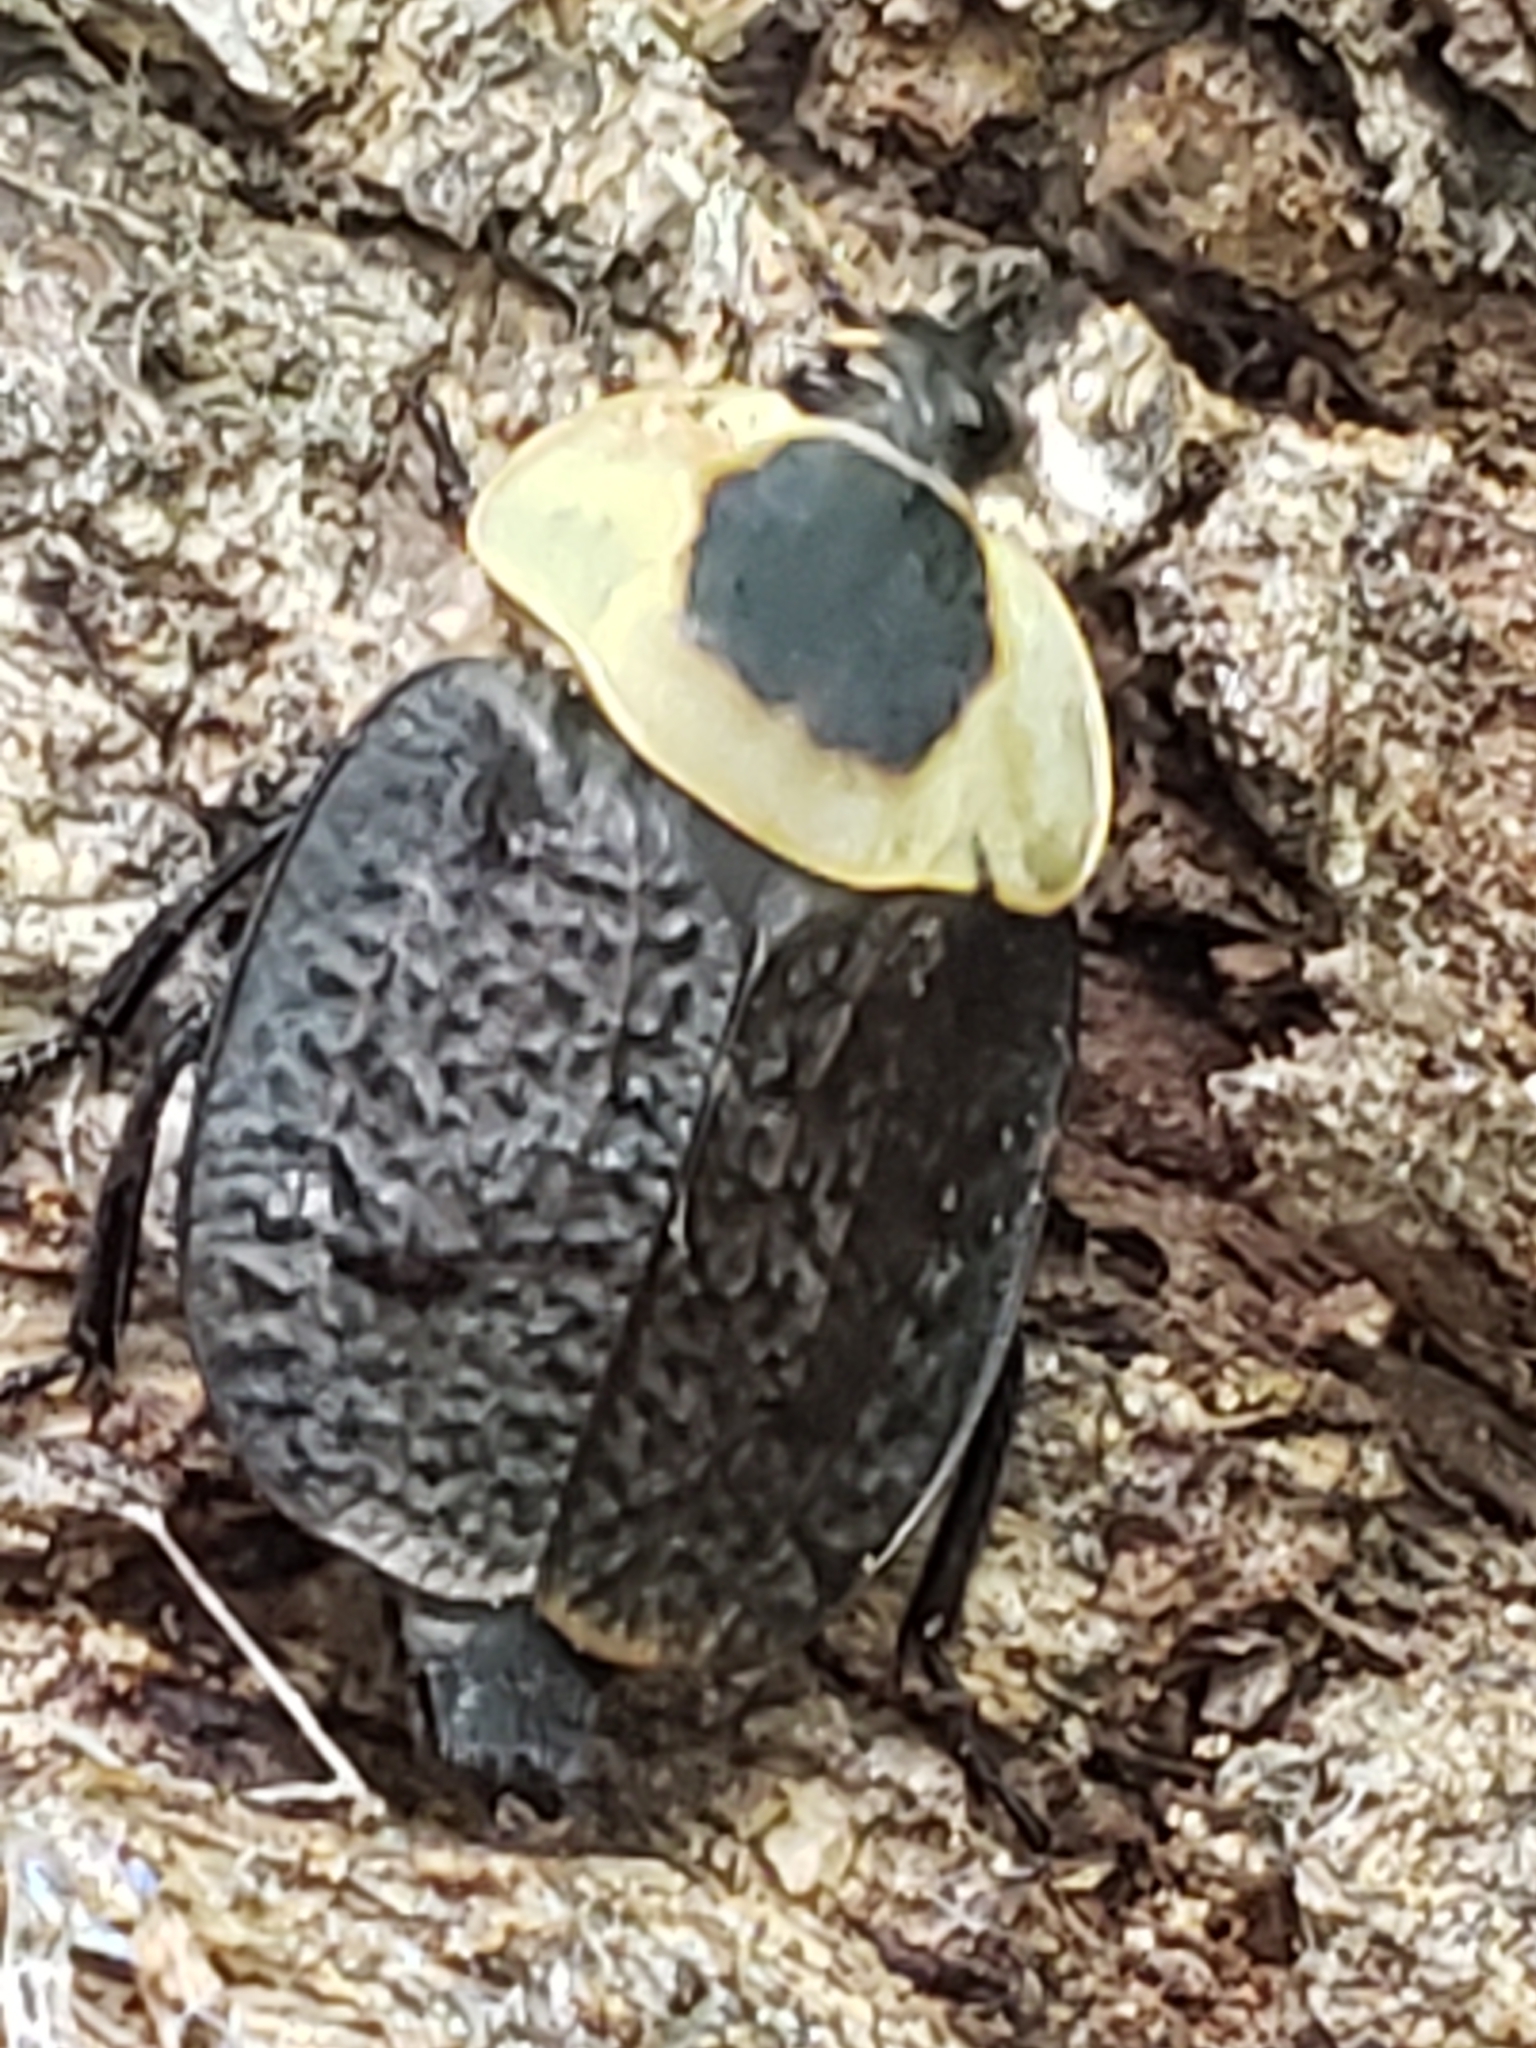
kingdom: Animalia
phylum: Arthropoda
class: Insecta
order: Coleoptera
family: Staphylinidae
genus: Necrophila
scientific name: Necrophila americana
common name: American carrion beetle
